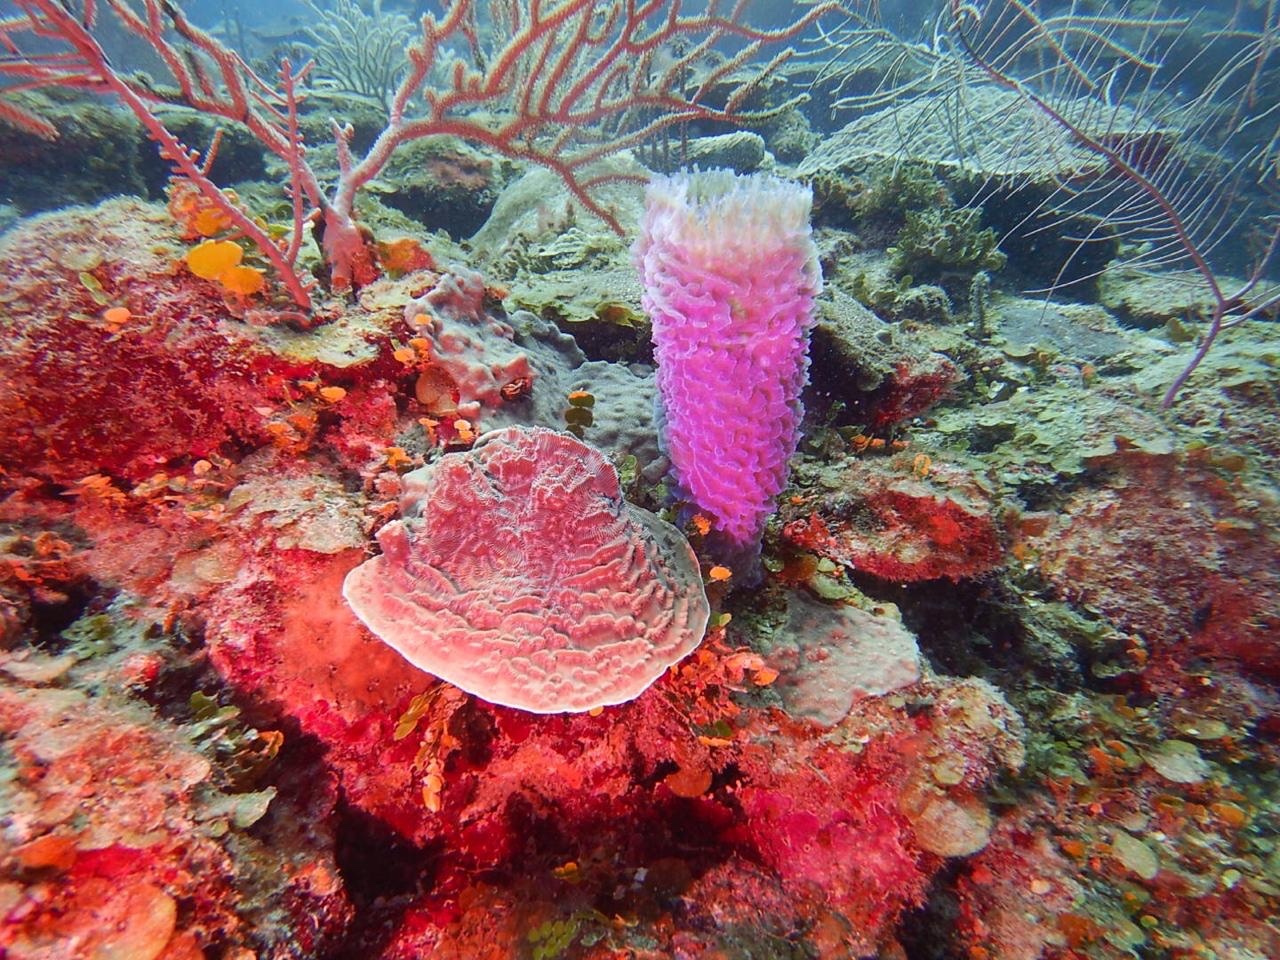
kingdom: Animalia
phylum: Cnidaria
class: Anthozoa
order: Scleractinia
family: Agariciidae
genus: Helioseris
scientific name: Helioseris cucullata
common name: Sunray lettuce coral
